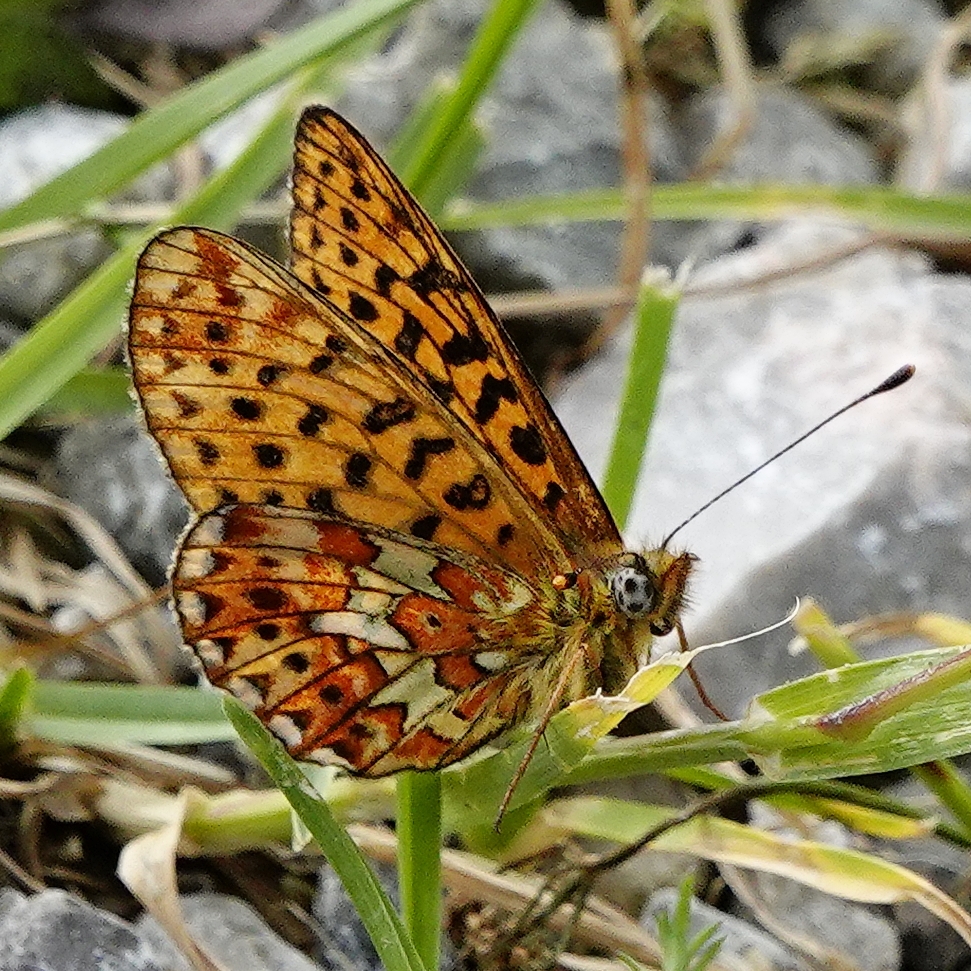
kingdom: Animalia
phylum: Arthropoda
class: Insecta
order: Lepidoptera
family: Nymphalidae
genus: Clossiana
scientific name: Clossiana euphrosyne
